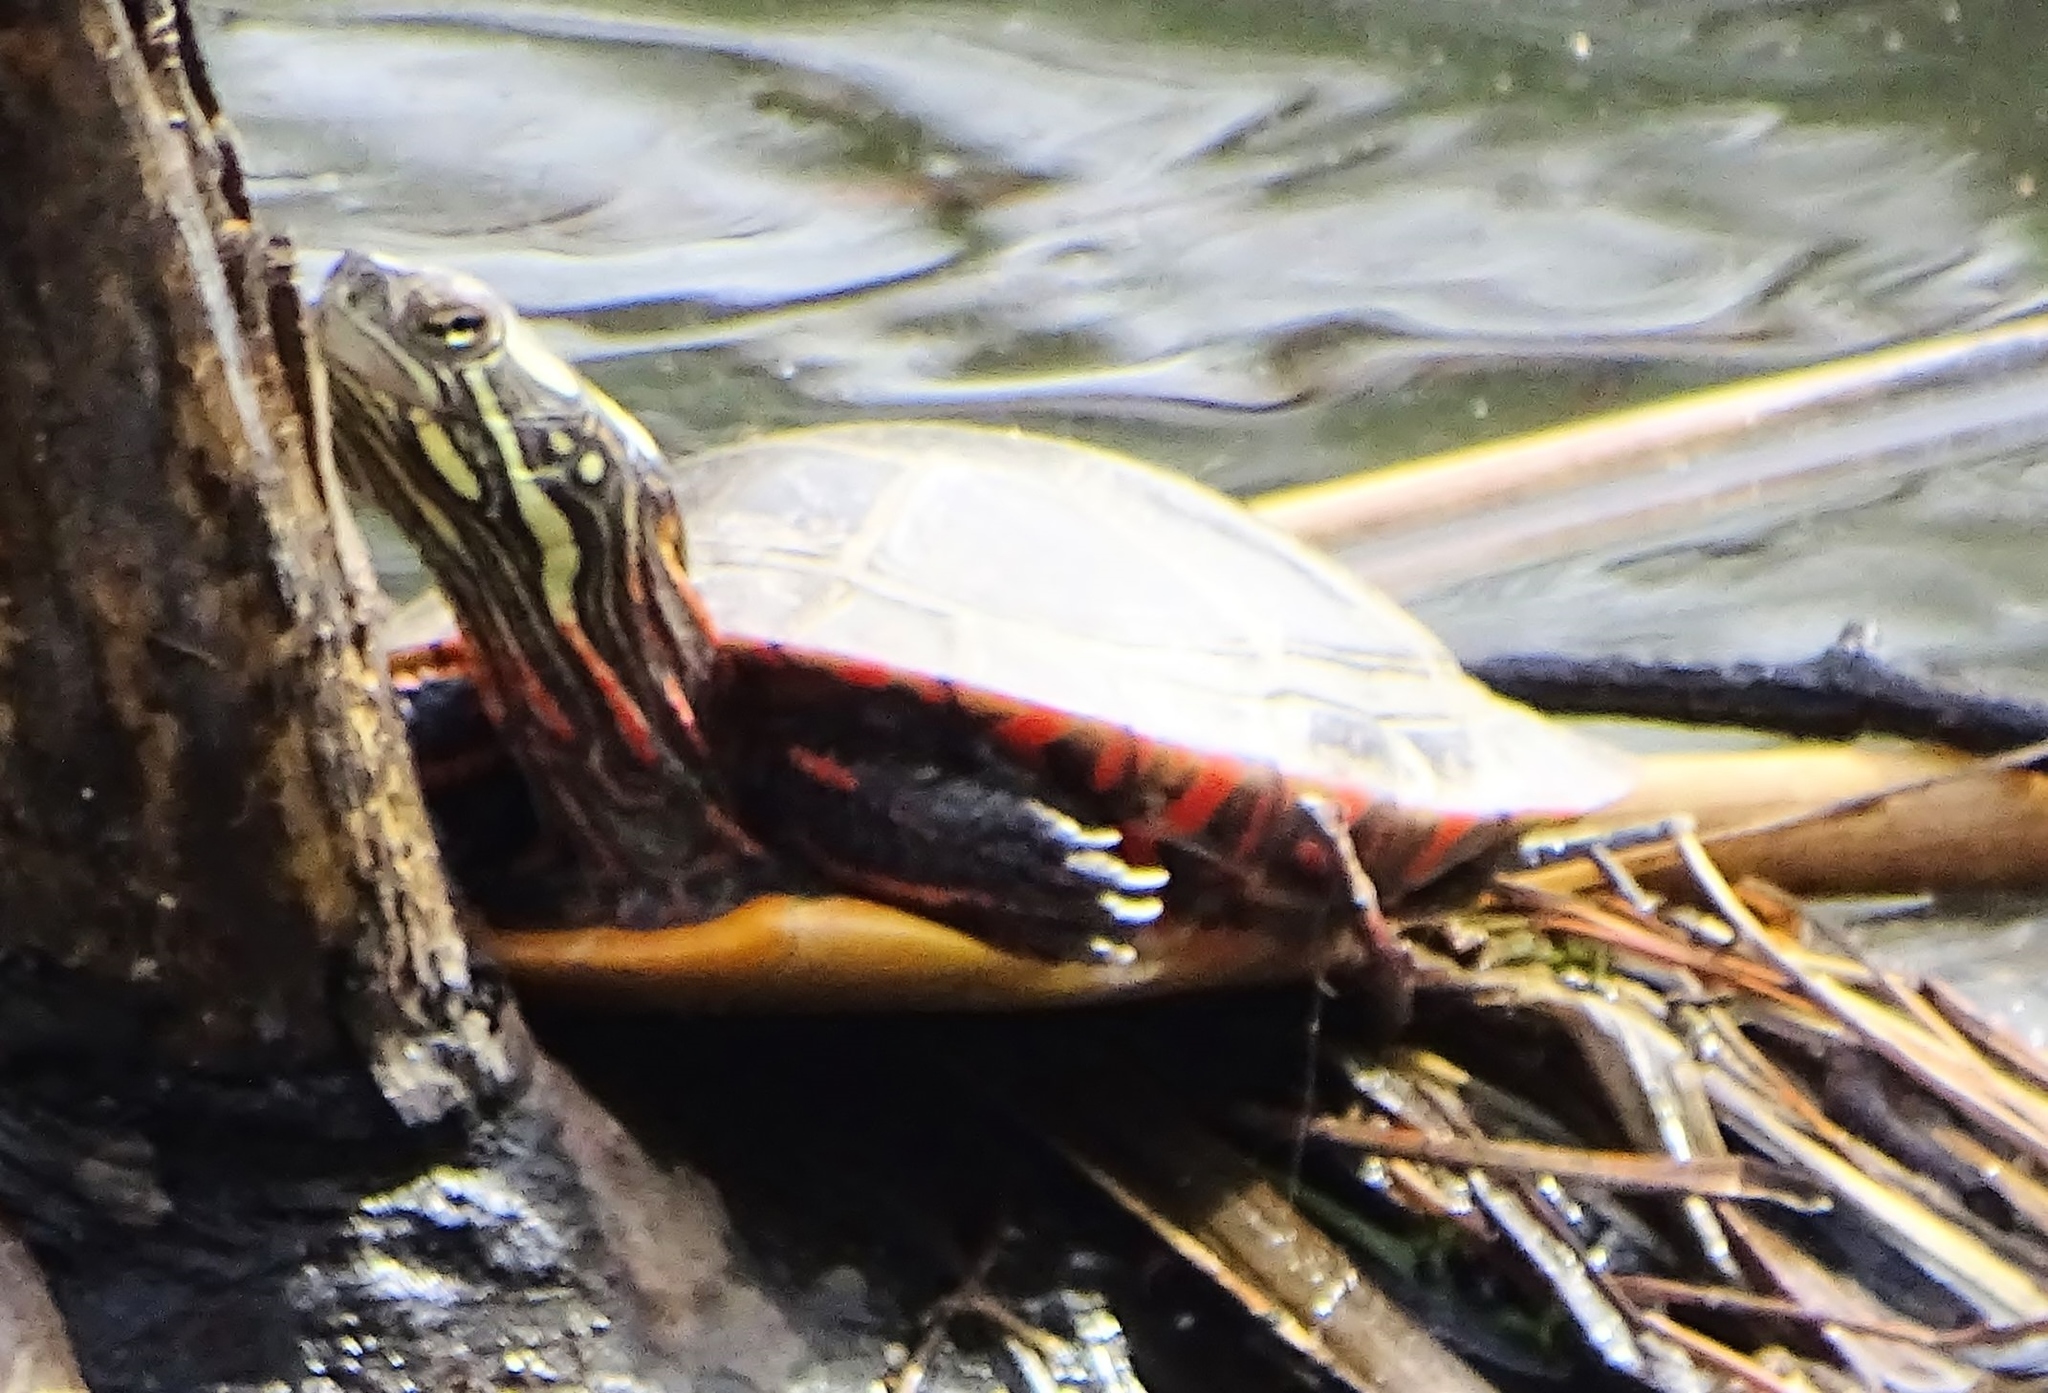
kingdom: Animalia
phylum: Chordata
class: Testudines
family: Emydidae
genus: Chrysemys
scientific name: Chrysemys picta
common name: Painted turtle
